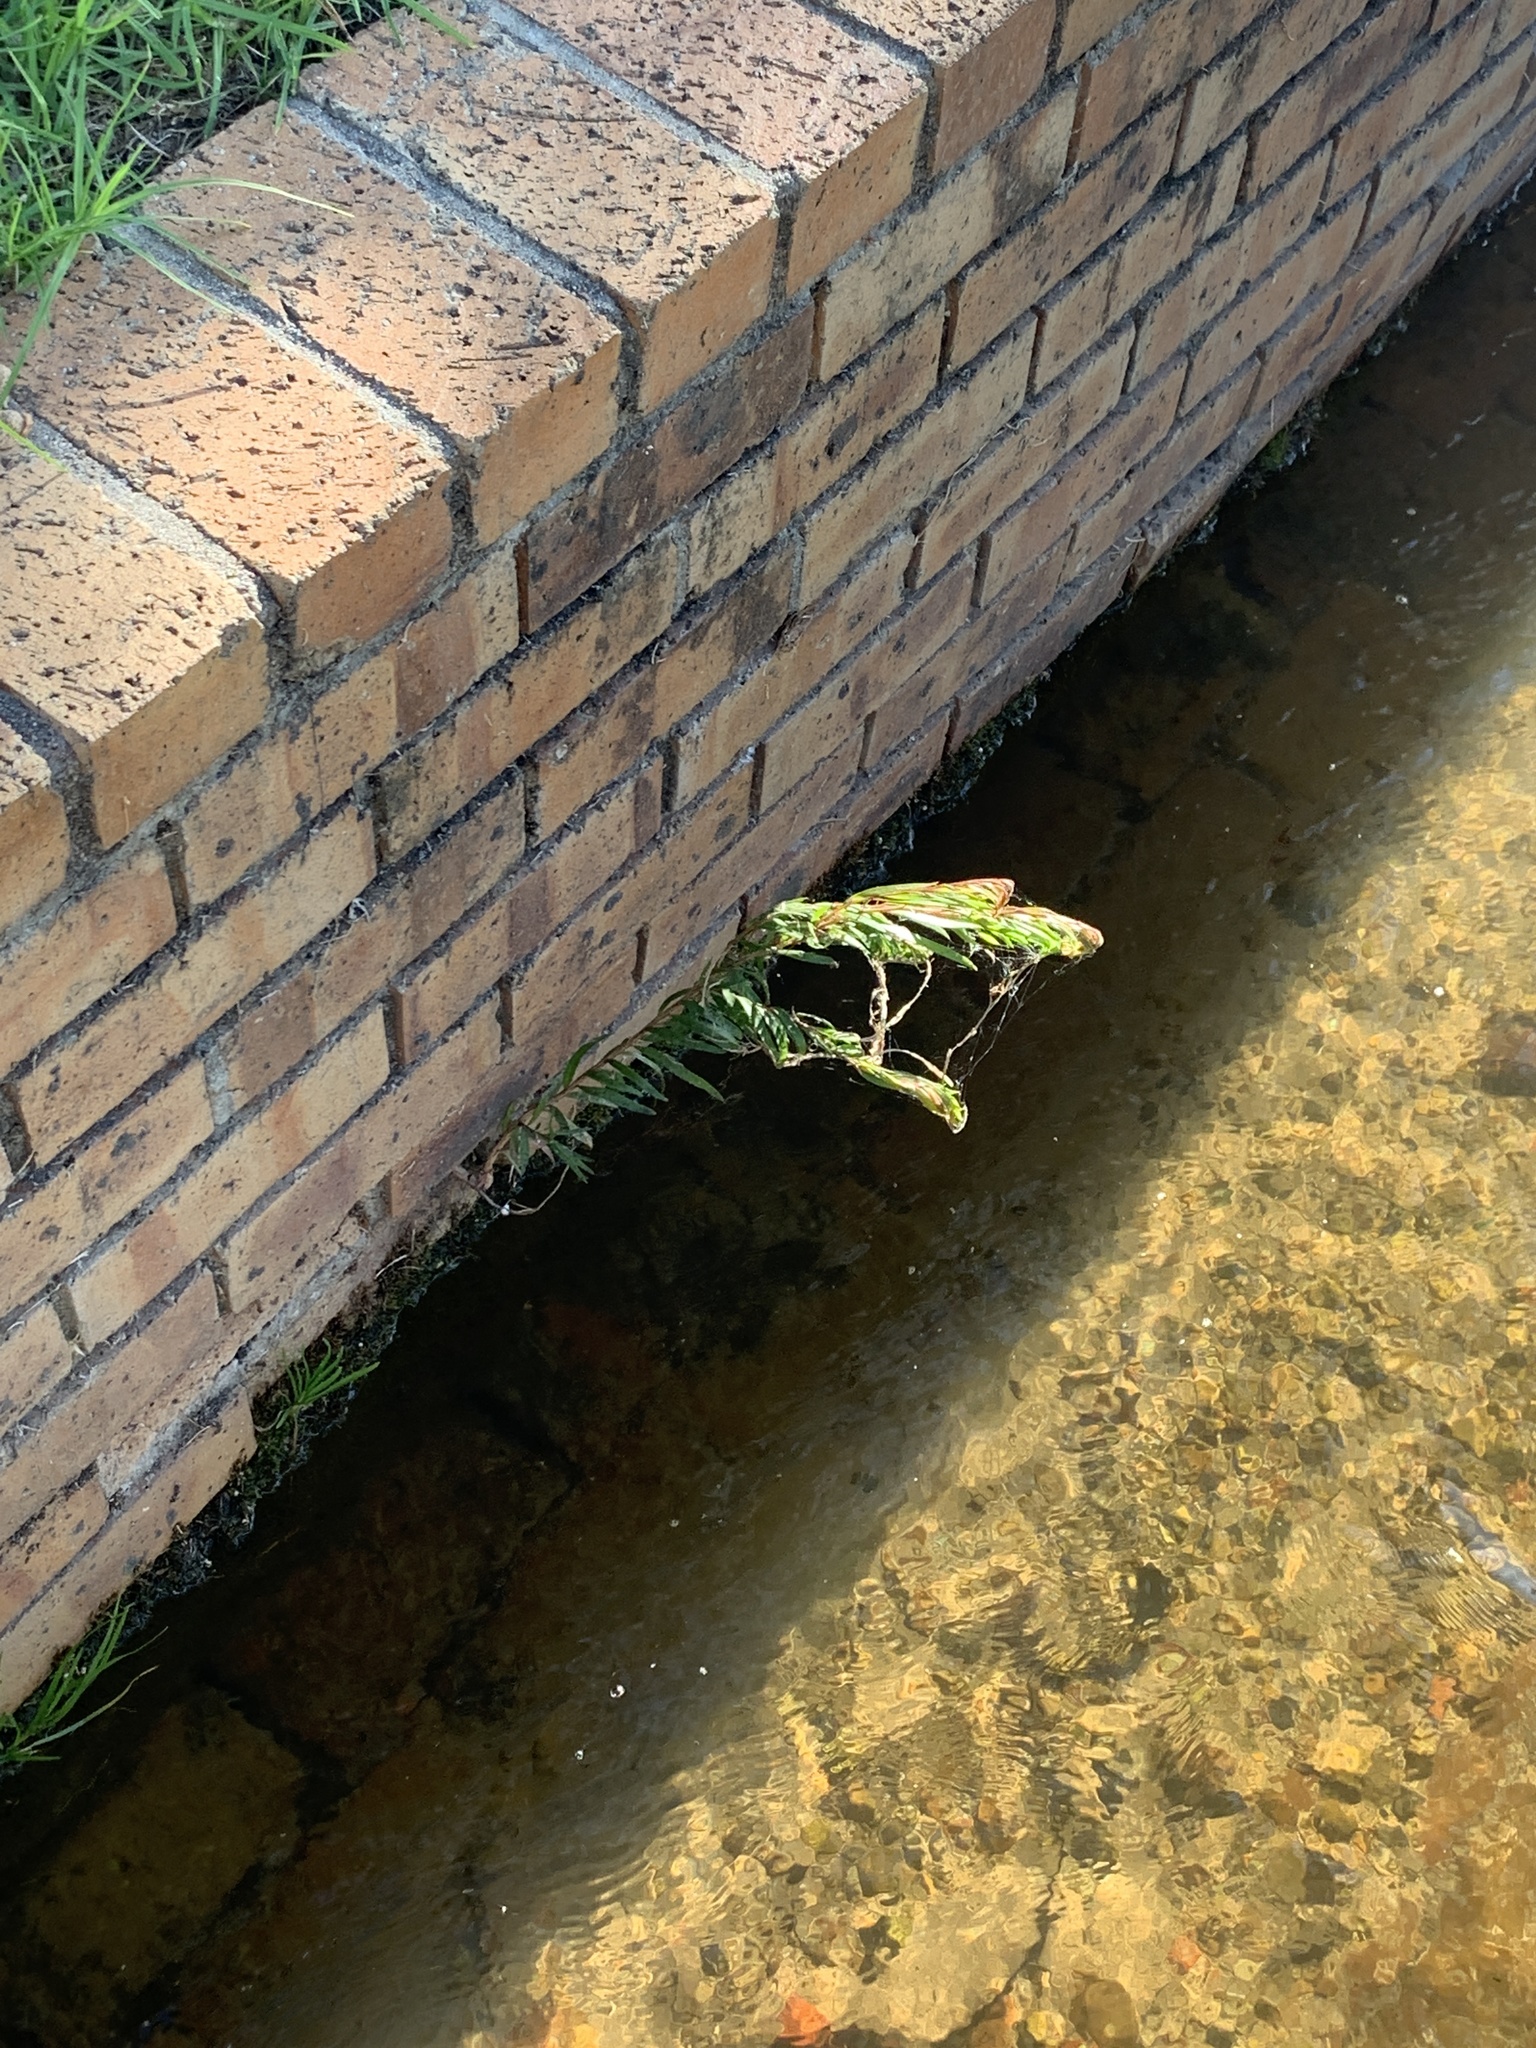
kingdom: Plantae
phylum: Tracheophyta
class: Magnoliopsida
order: Myrtales
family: Myrtaceae
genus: Callistemon
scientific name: Callistemon viminalis
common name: Drooping bottlebrush
